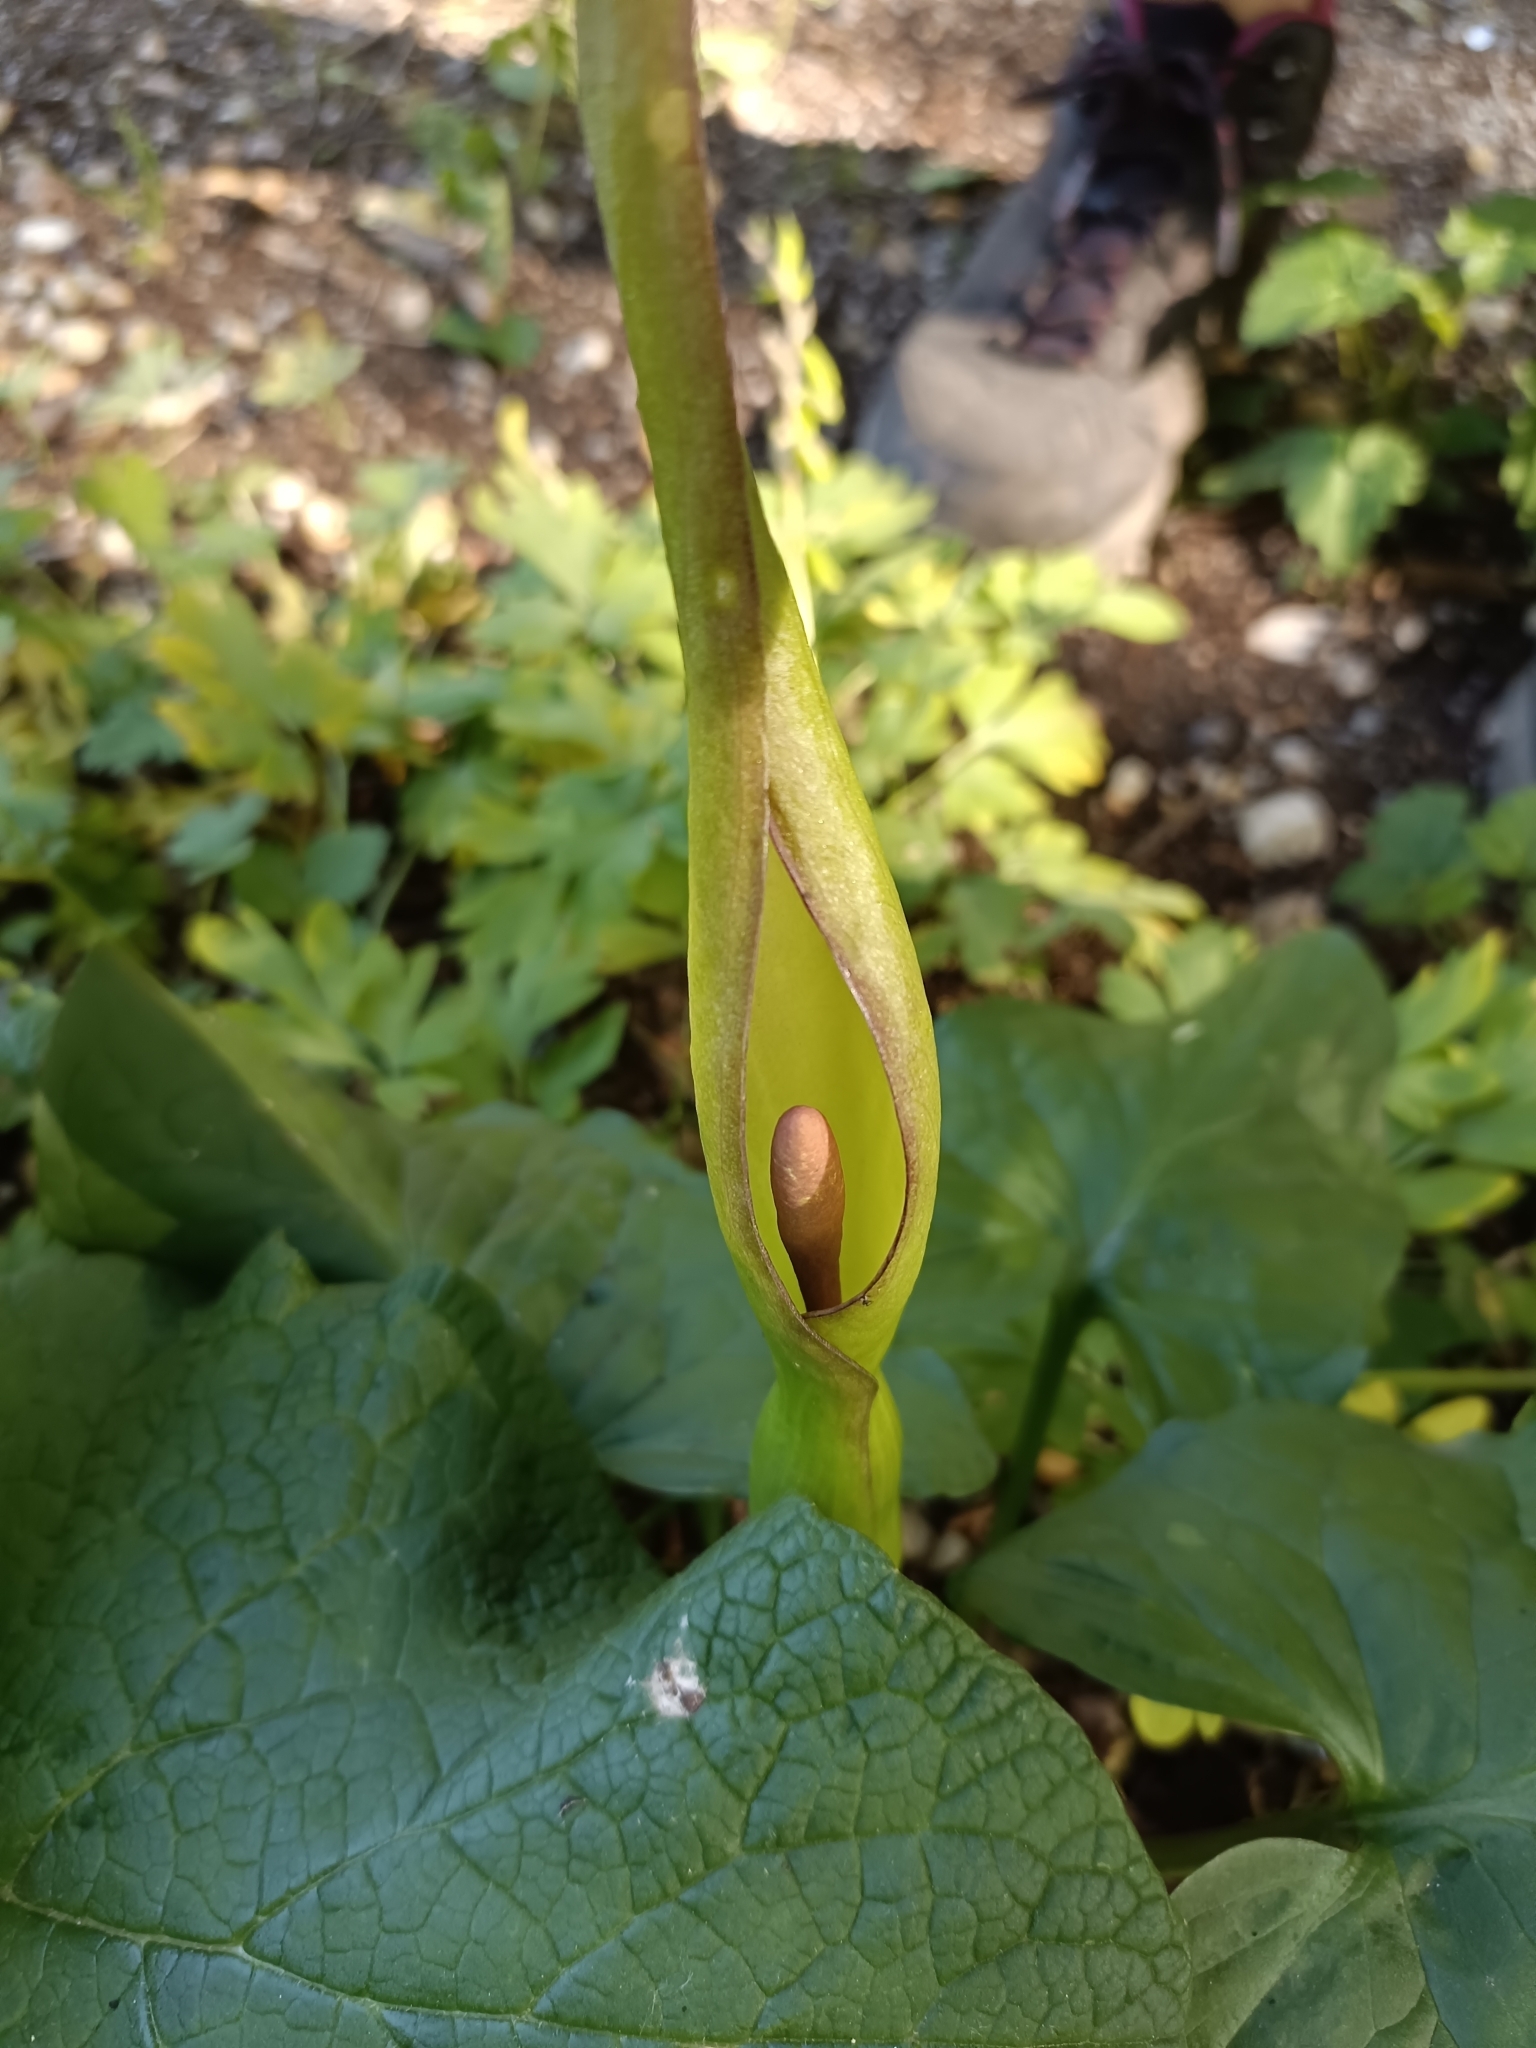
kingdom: Plantae
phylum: Tracheophyta
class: Liliopsida
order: Alismatales
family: Araceae
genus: Arum
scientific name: Arum cylindraceum
